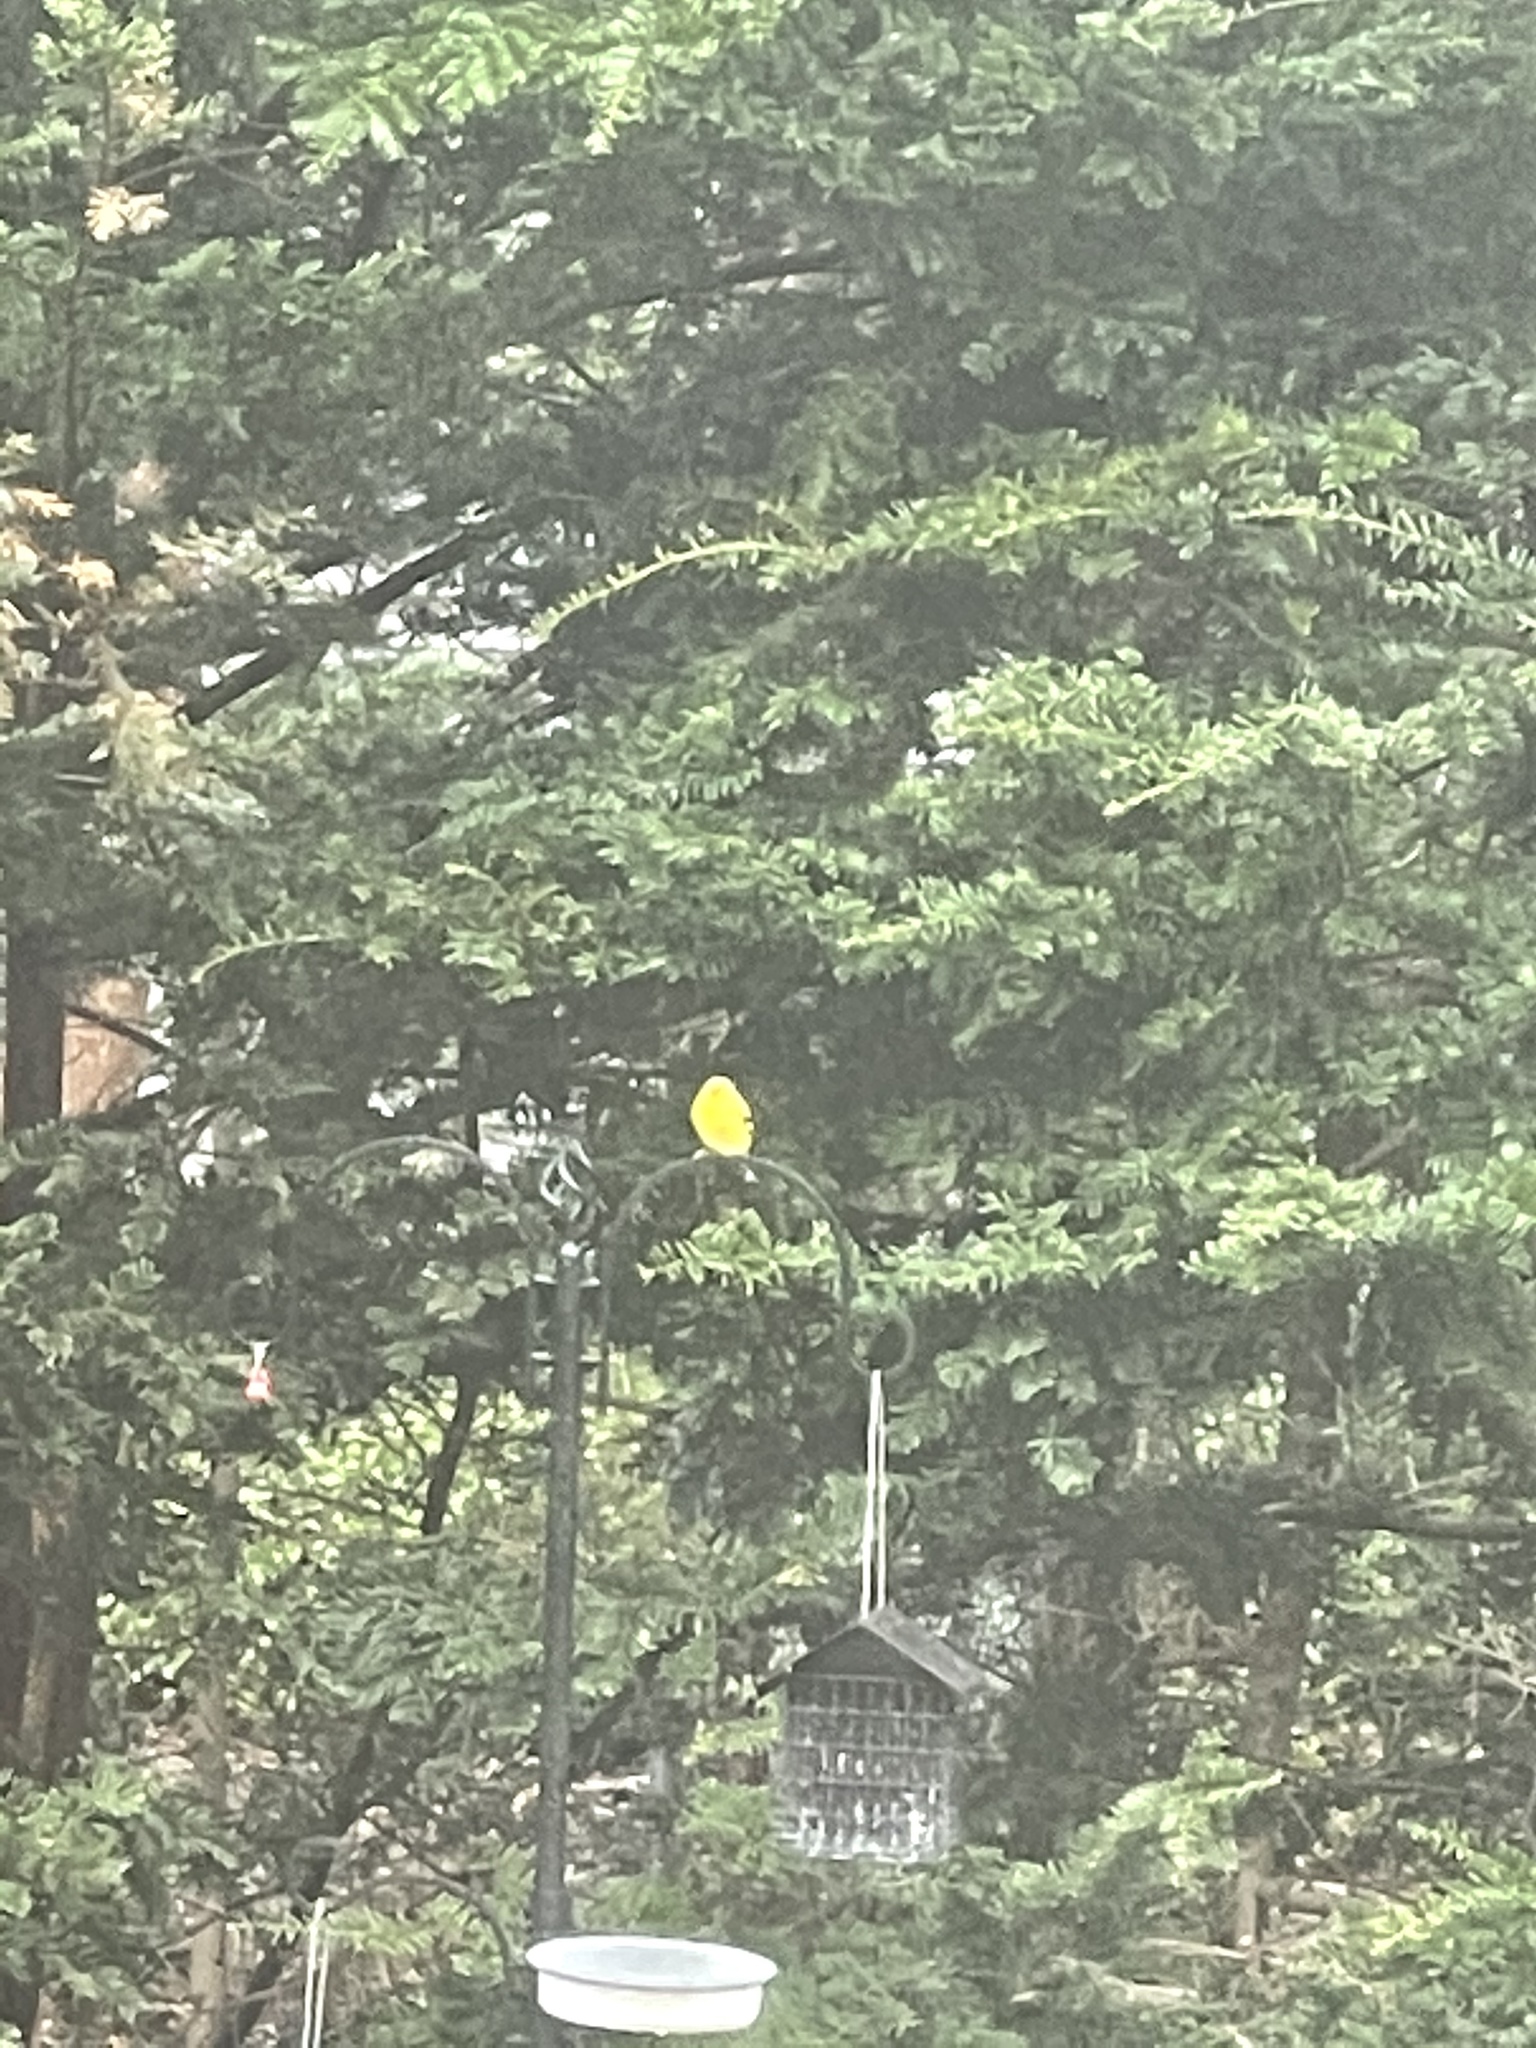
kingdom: Animalia
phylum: Chordata
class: Aves
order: Passeriformes
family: Fringillidae
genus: Spinus
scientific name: Spinus tristis
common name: American goldfinch
